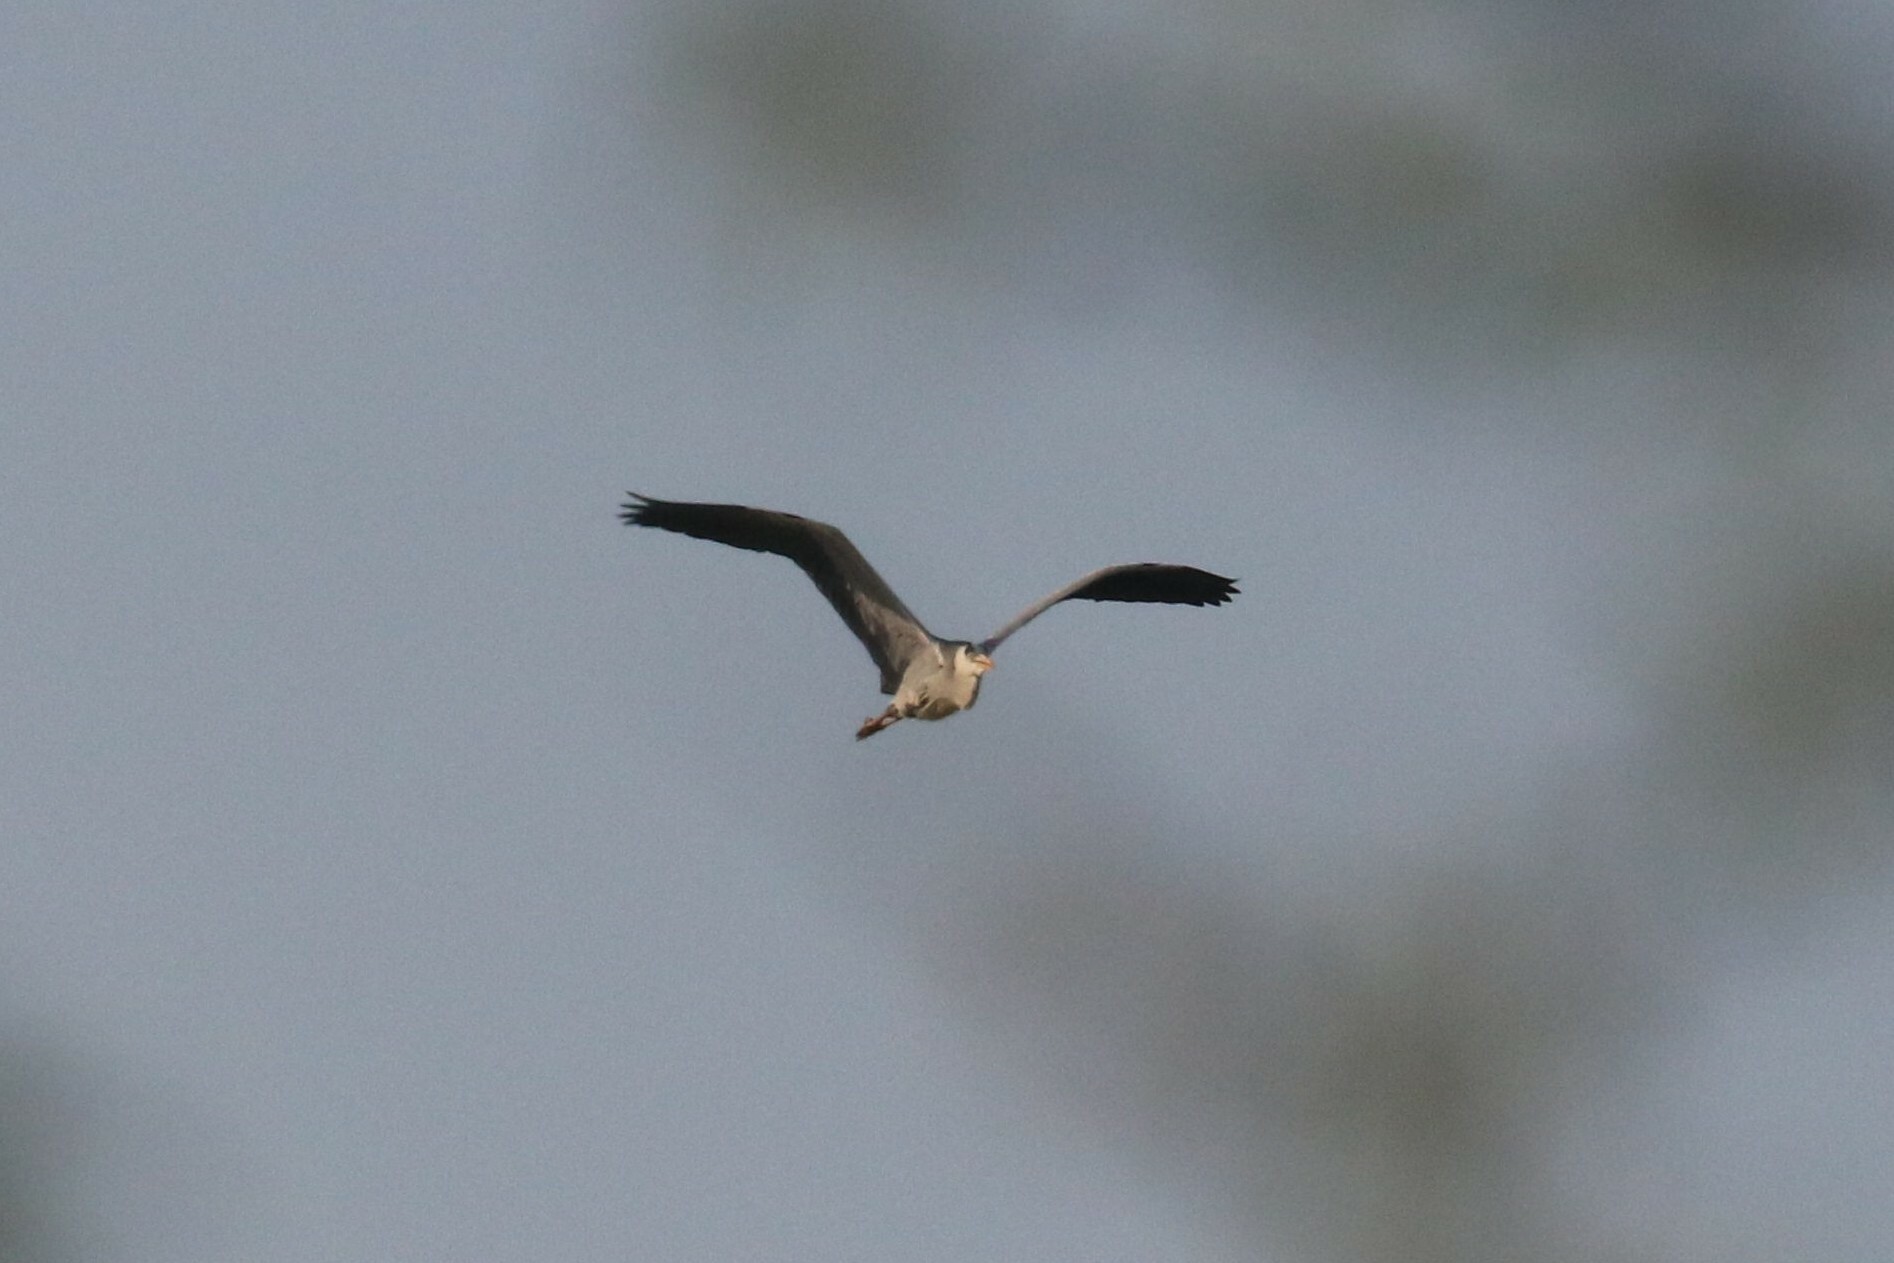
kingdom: Animalia
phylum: Chordata
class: Aves
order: Pelecaniformes
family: Ardeidae
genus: Ardea
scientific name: Ardea cinerea
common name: Grey heron
